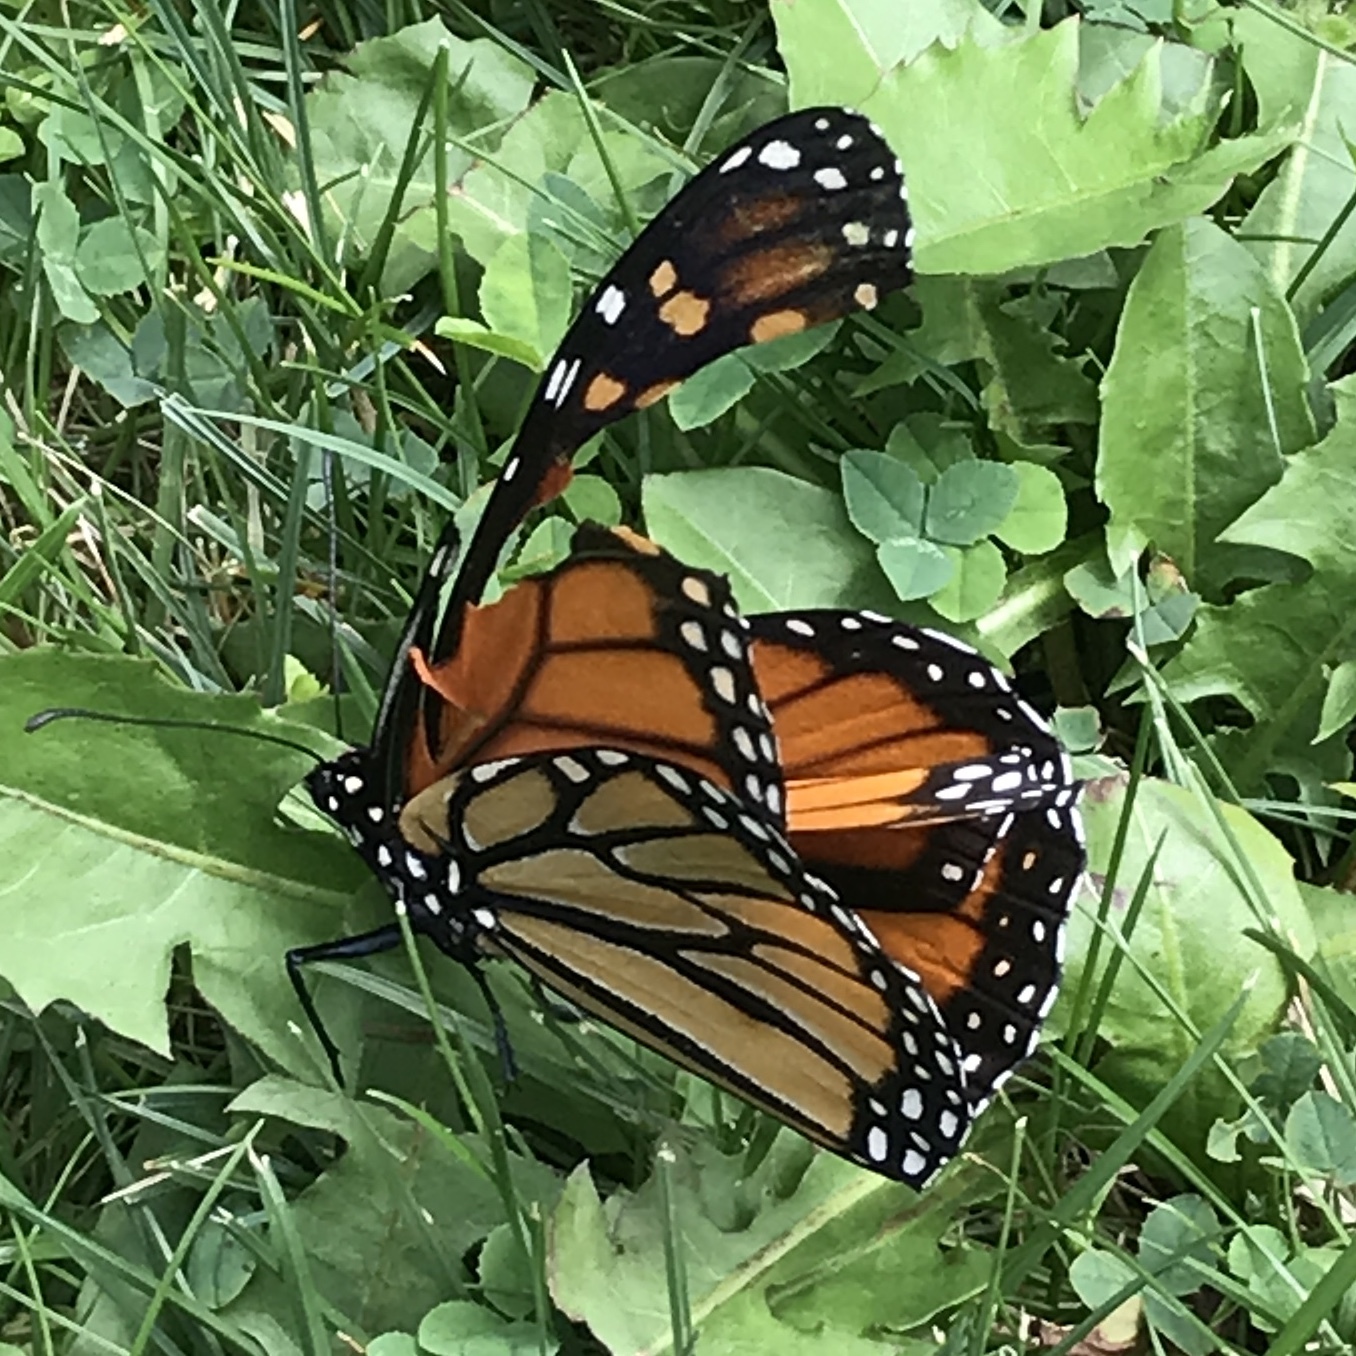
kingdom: Animalia
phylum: Arthropoda
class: Insecta
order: Lepidoptera
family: Nymphalidae
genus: Danaus
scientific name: Danaus plexippus
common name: Monarch
